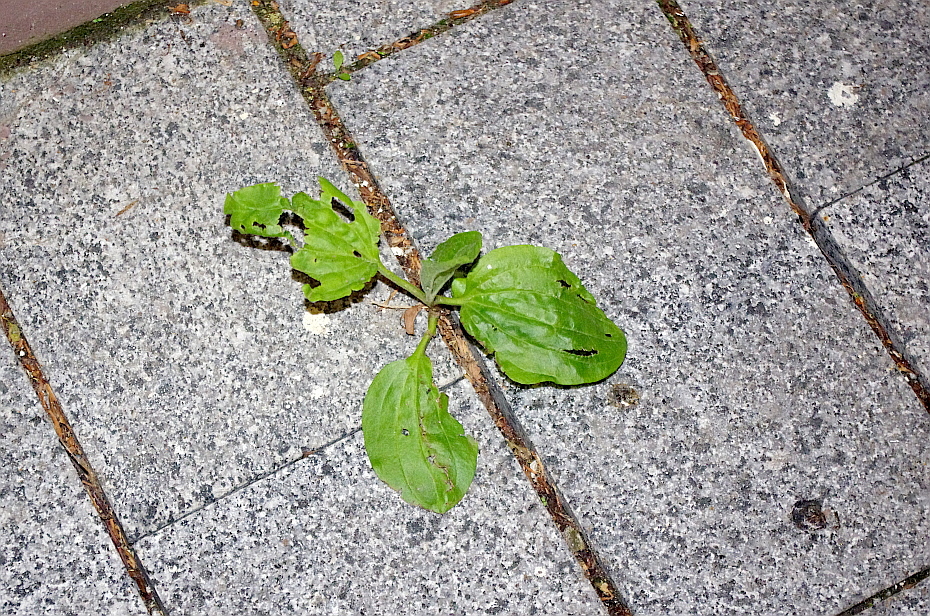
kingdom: Plantae
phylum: Tracheophyta
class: Magnoliopsida
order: Lamiales
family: Plantaginaceae
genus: Plantago
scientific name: Plantago major
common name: Common plantain
